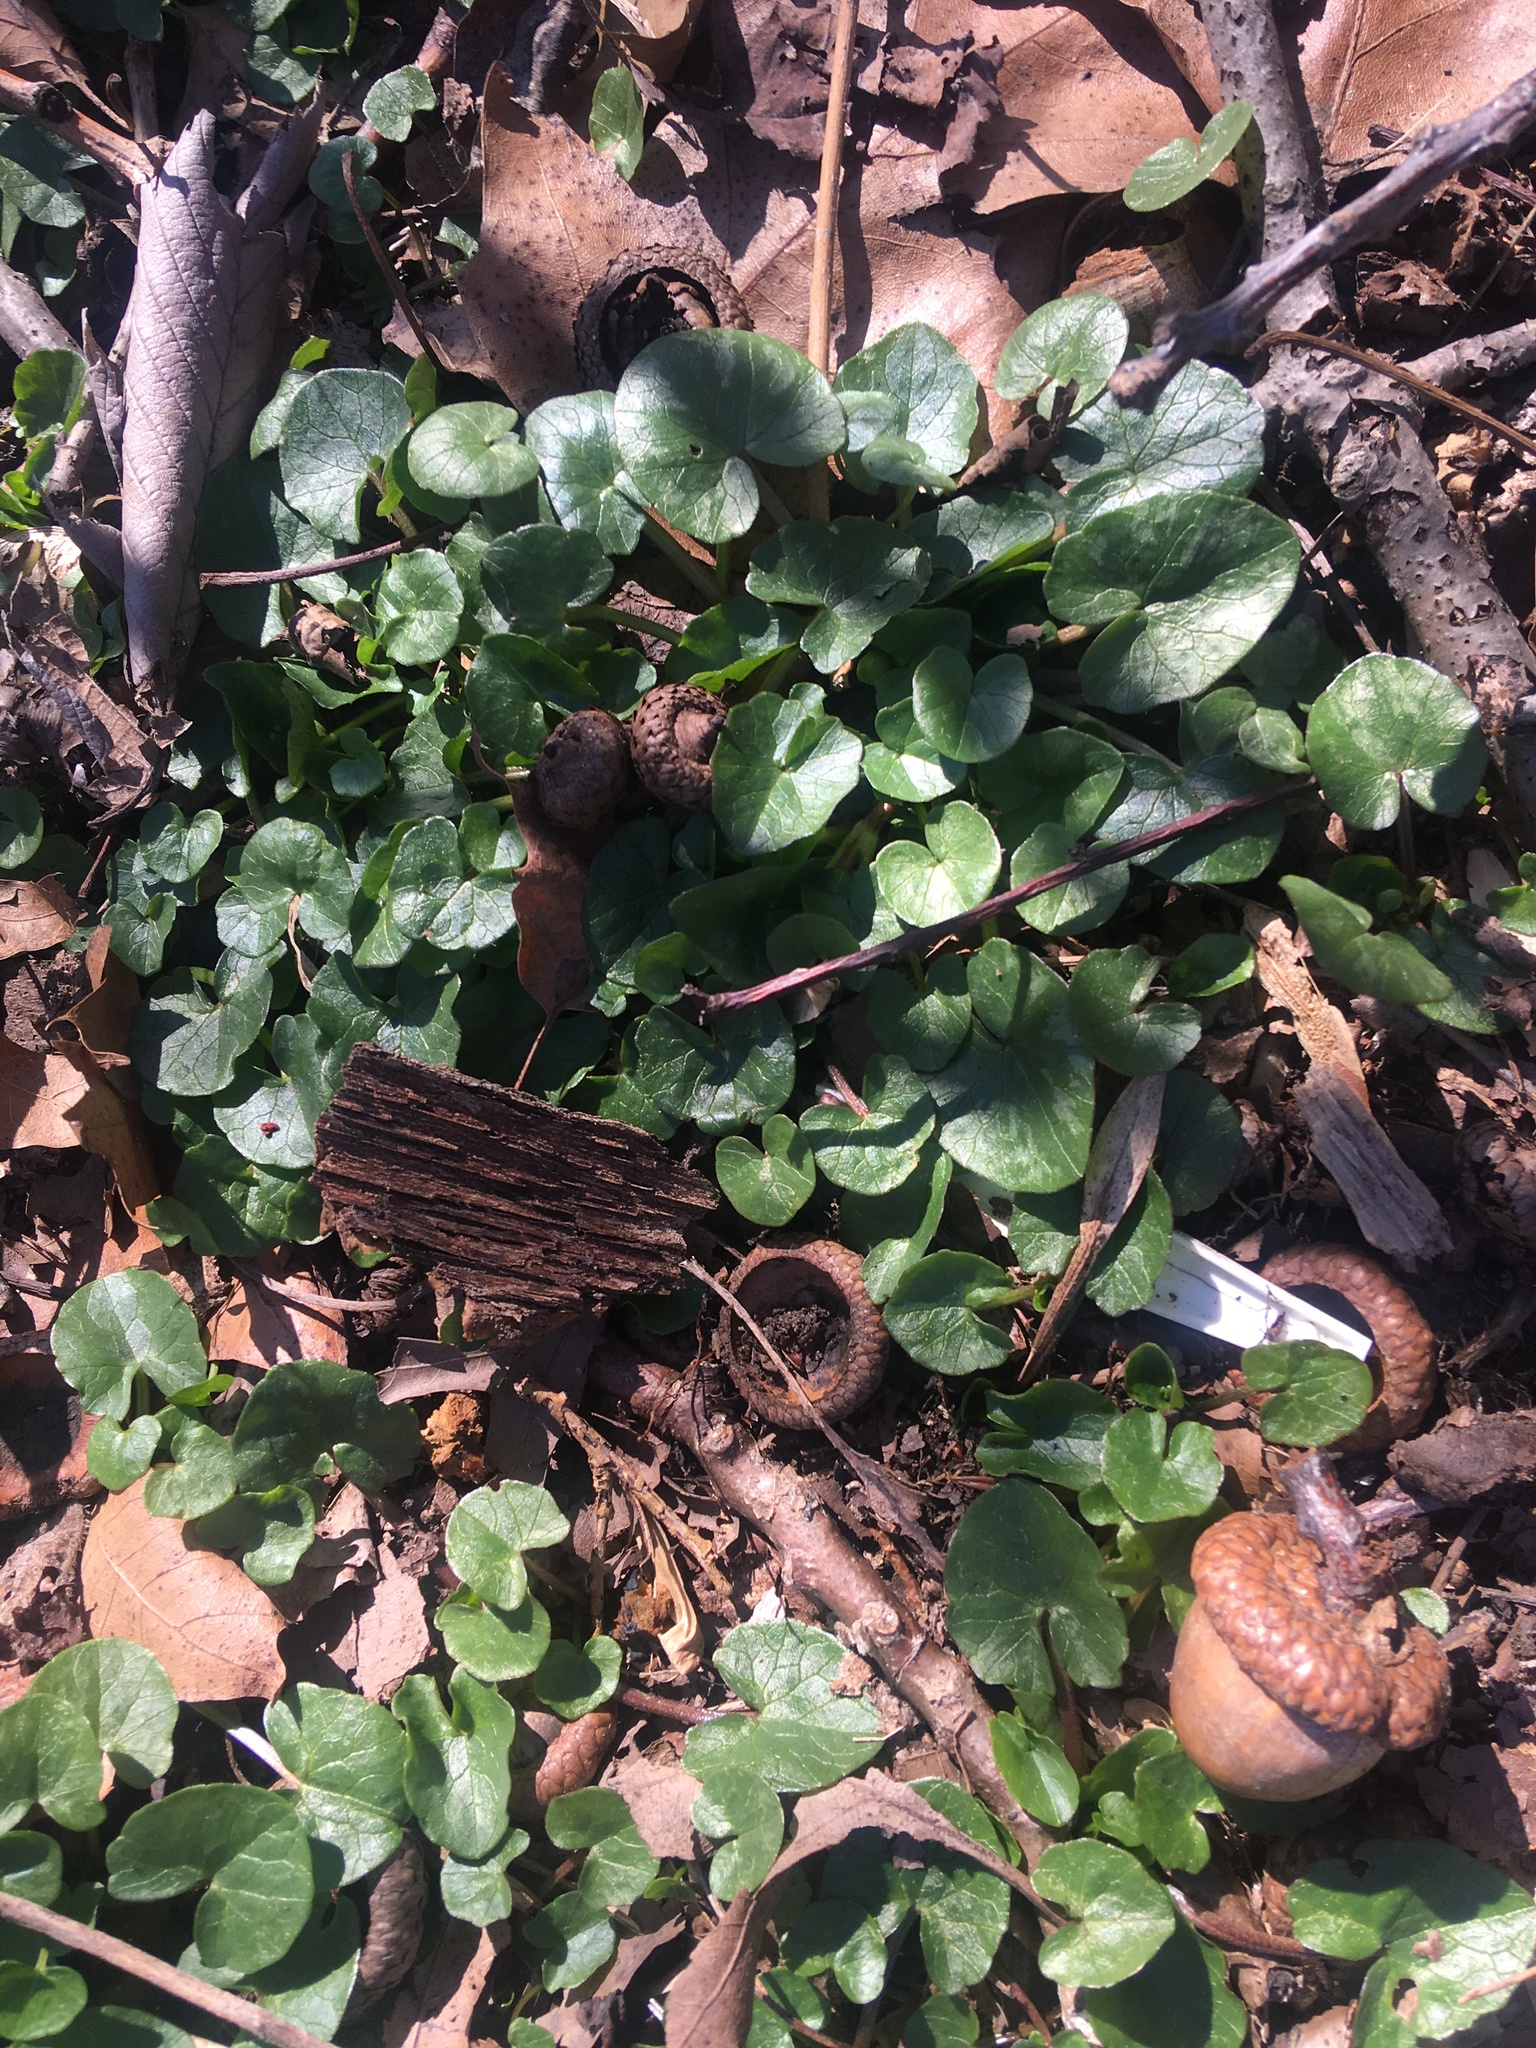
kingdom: Plantae
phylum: Tracheophyta
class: Magnoliopsida
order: Ranunculales
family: Ranunculaceae
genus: Ficaria
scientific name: Ficaria verna
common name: Lesser celandine
